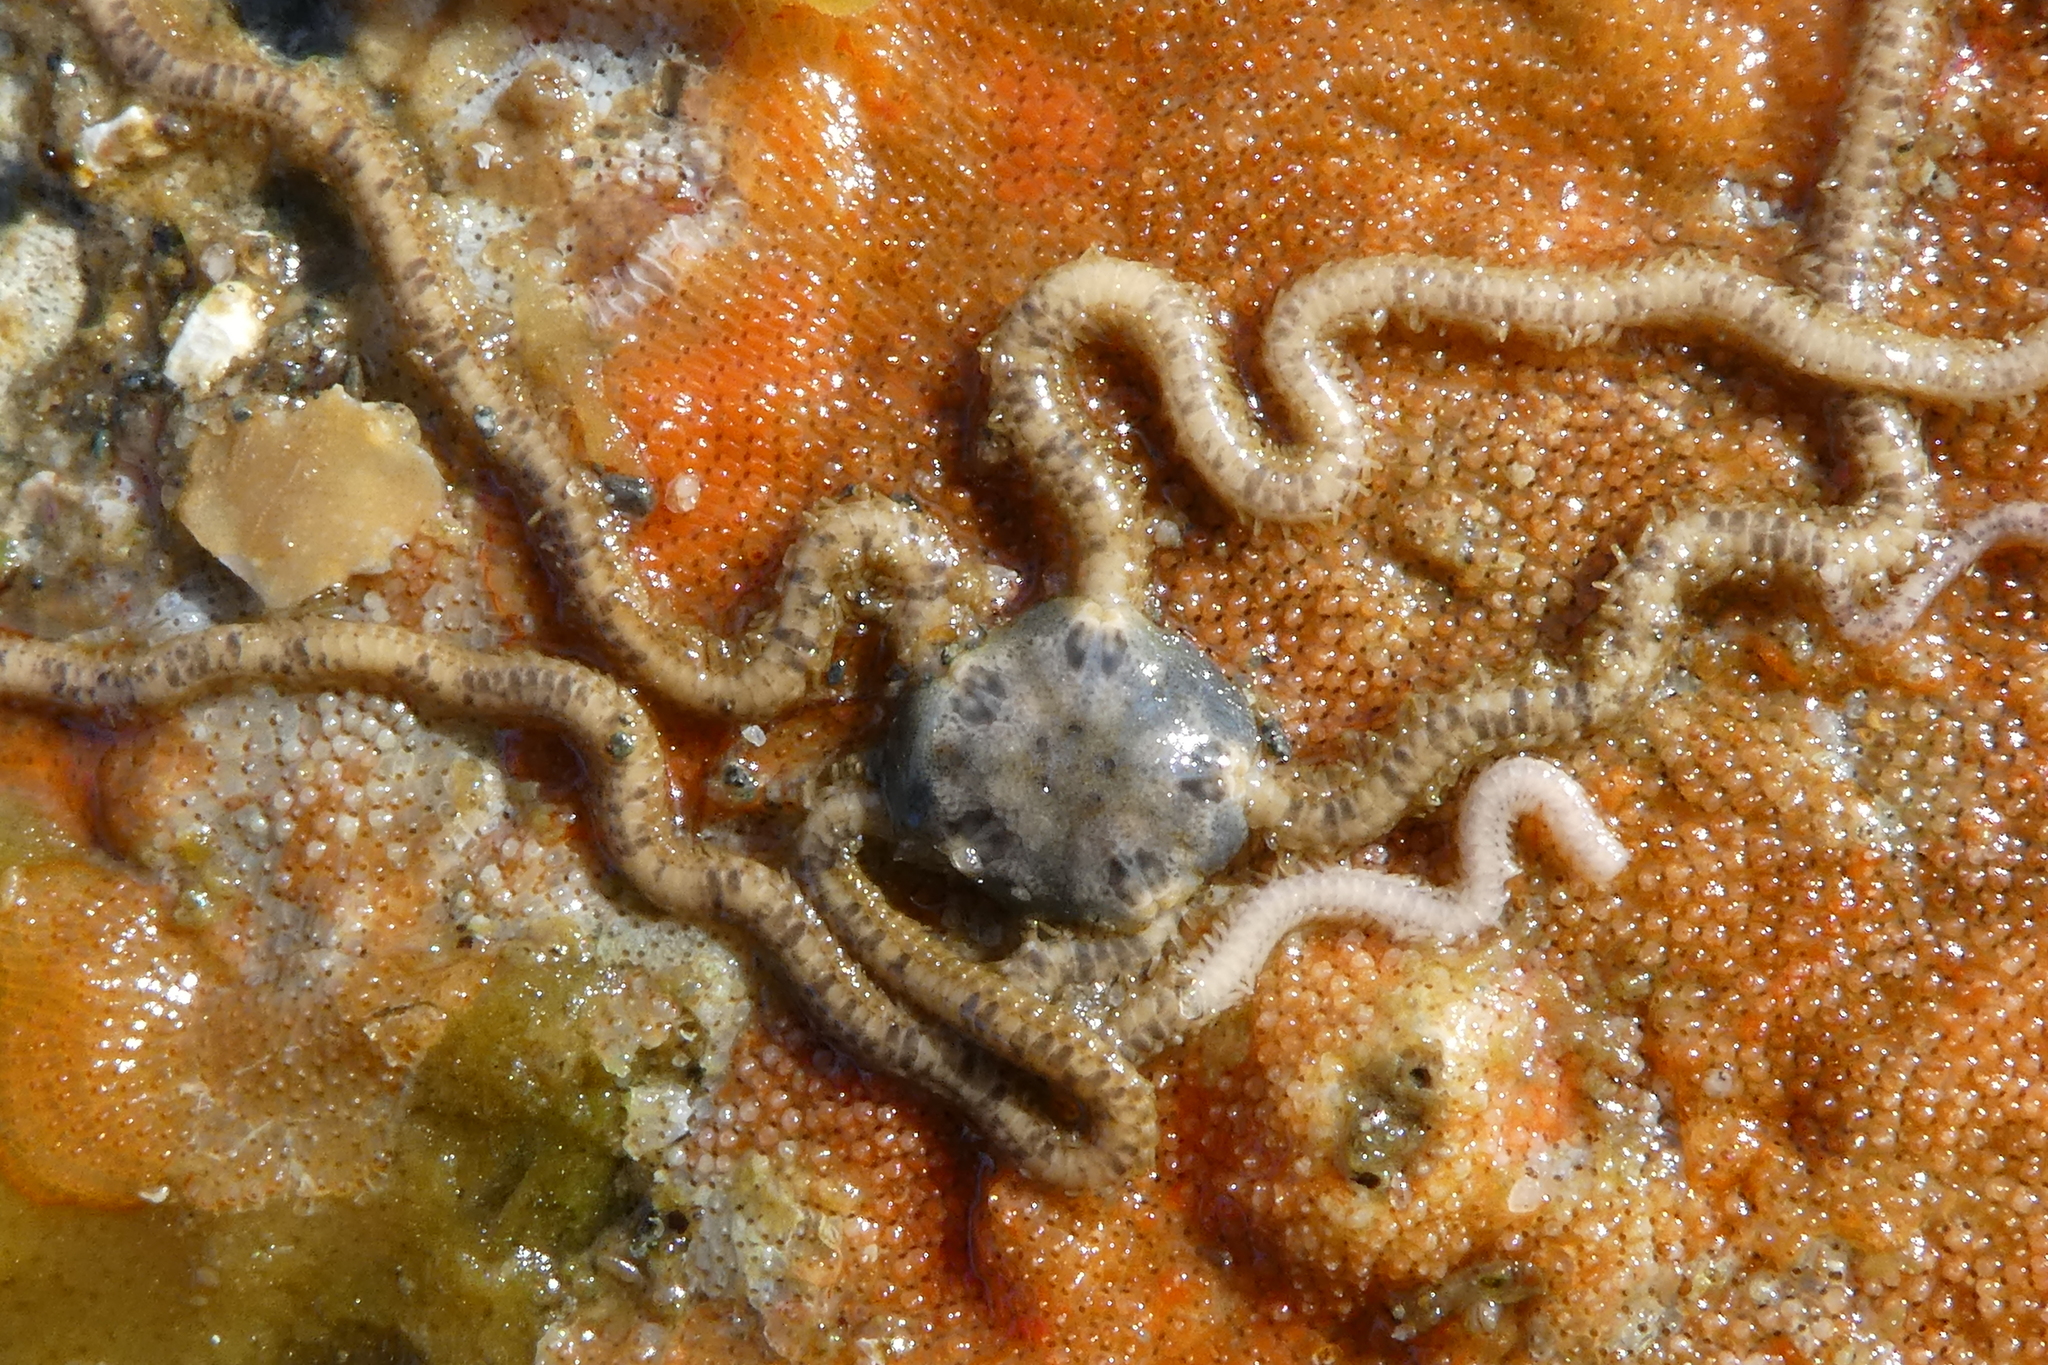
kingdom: Animalia
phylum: Echinodermata
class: Ophiuroidea
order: Amphilepidida
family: Amphiuridae
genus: Amphiodia
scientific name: Amphiodia occidentalis
